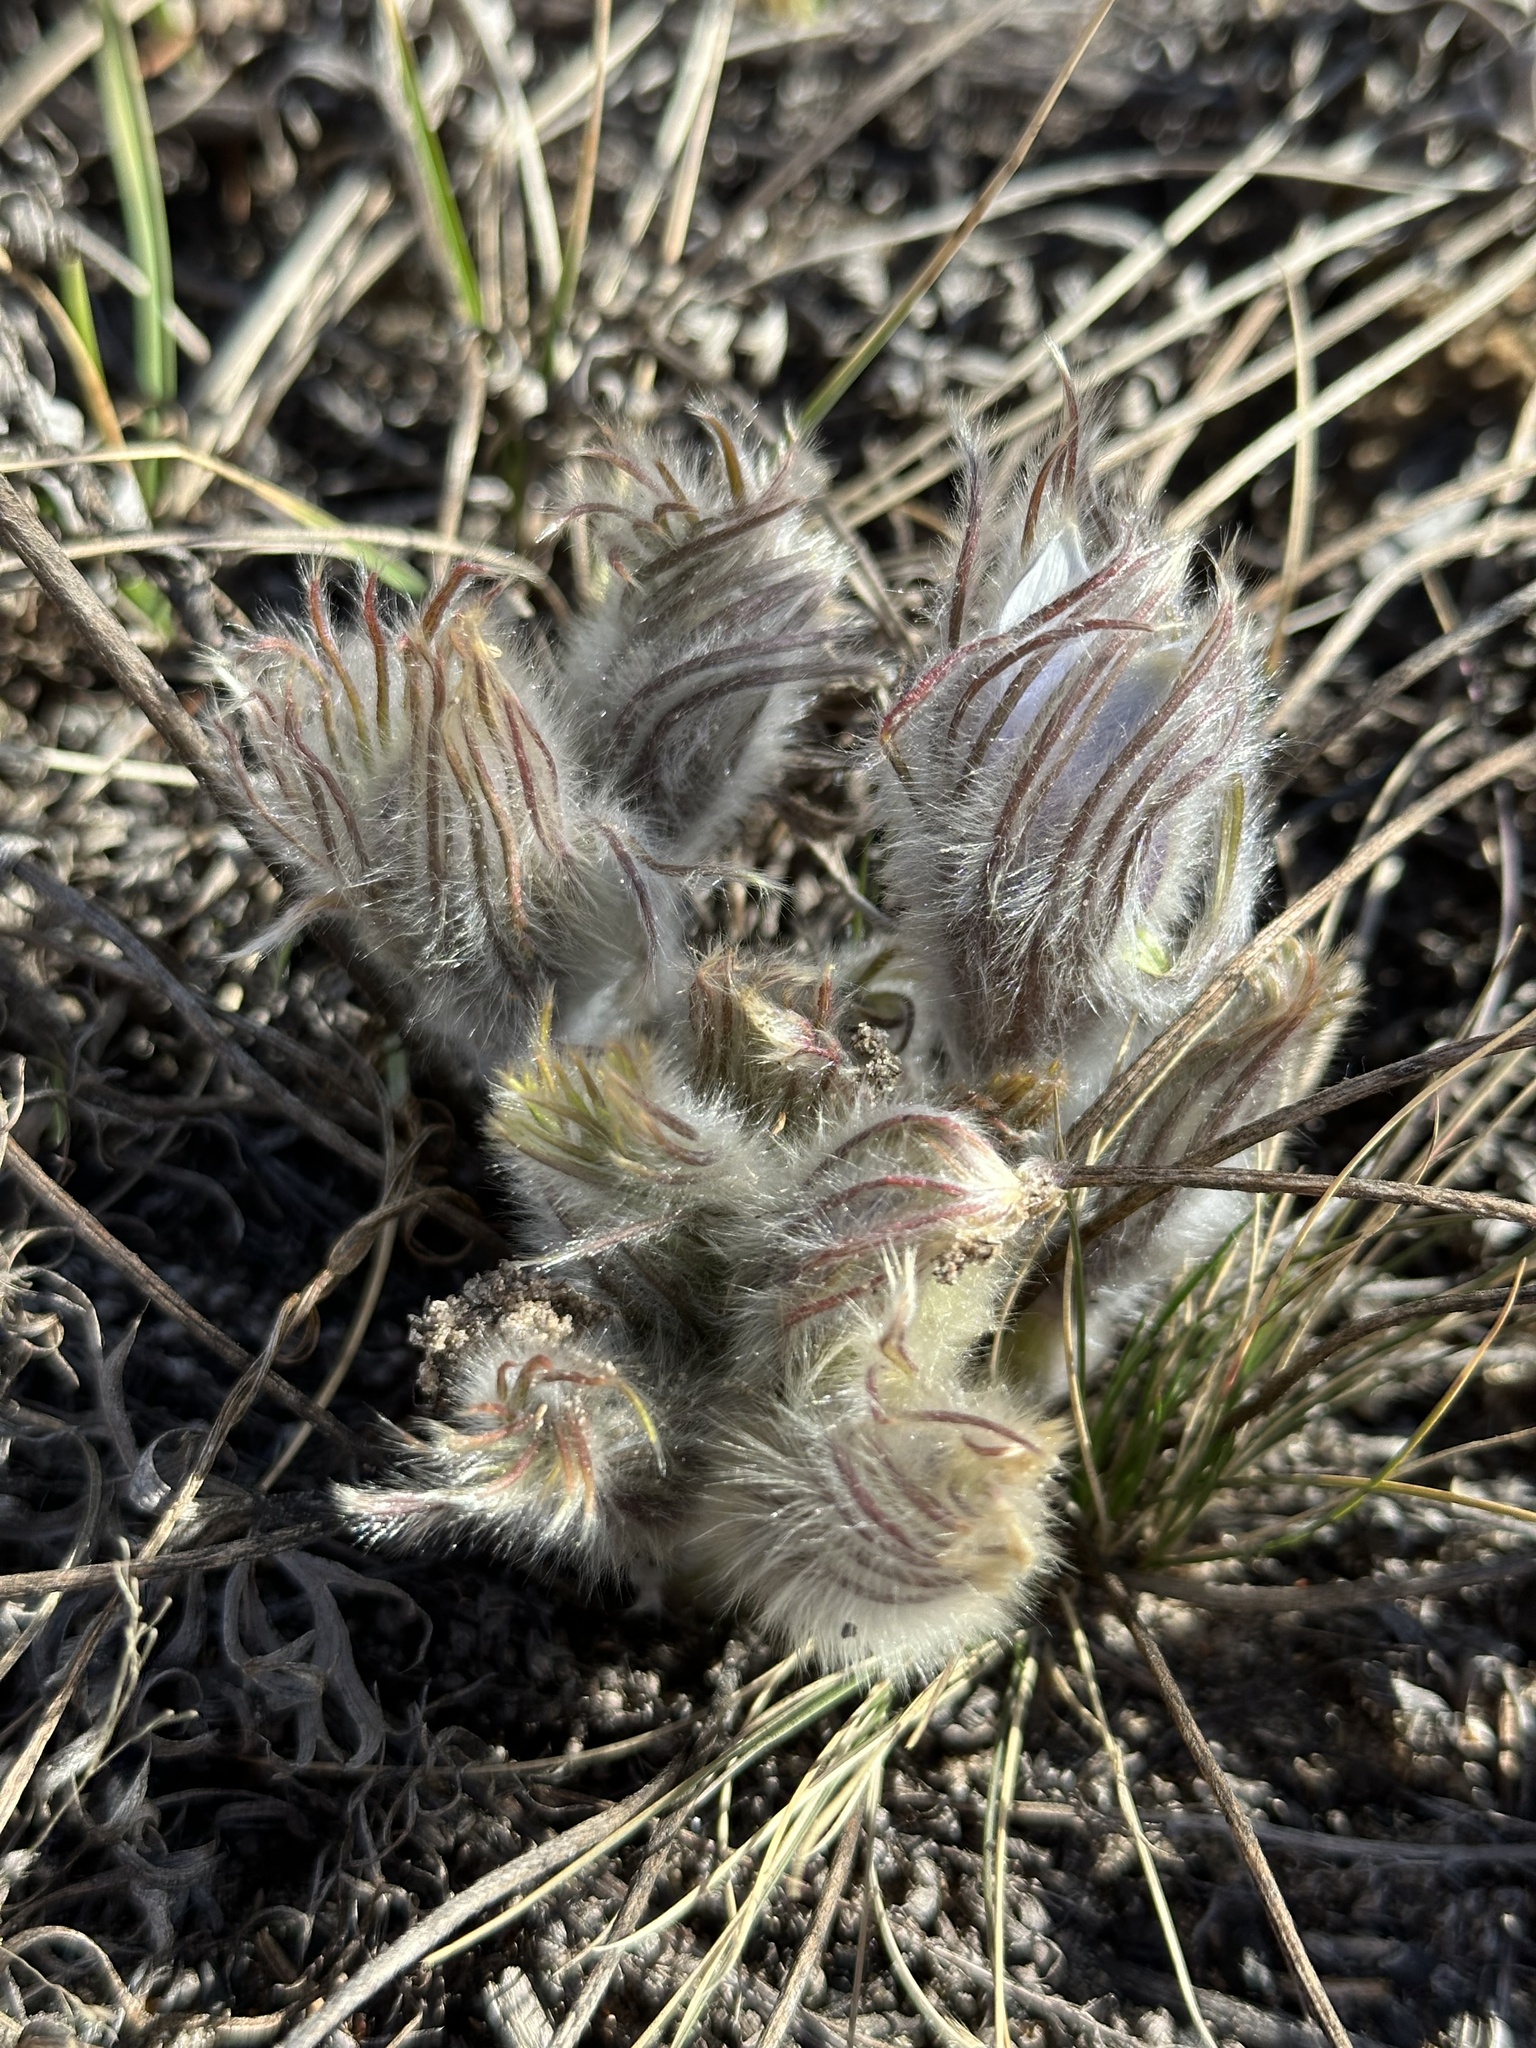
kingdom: Plantae
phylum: Tracheophyta
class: Magnoliopsida
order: Ranunculales
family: Ranunculaceae
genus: Pulsatilla
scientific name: Pulsatilla nuttalliana
